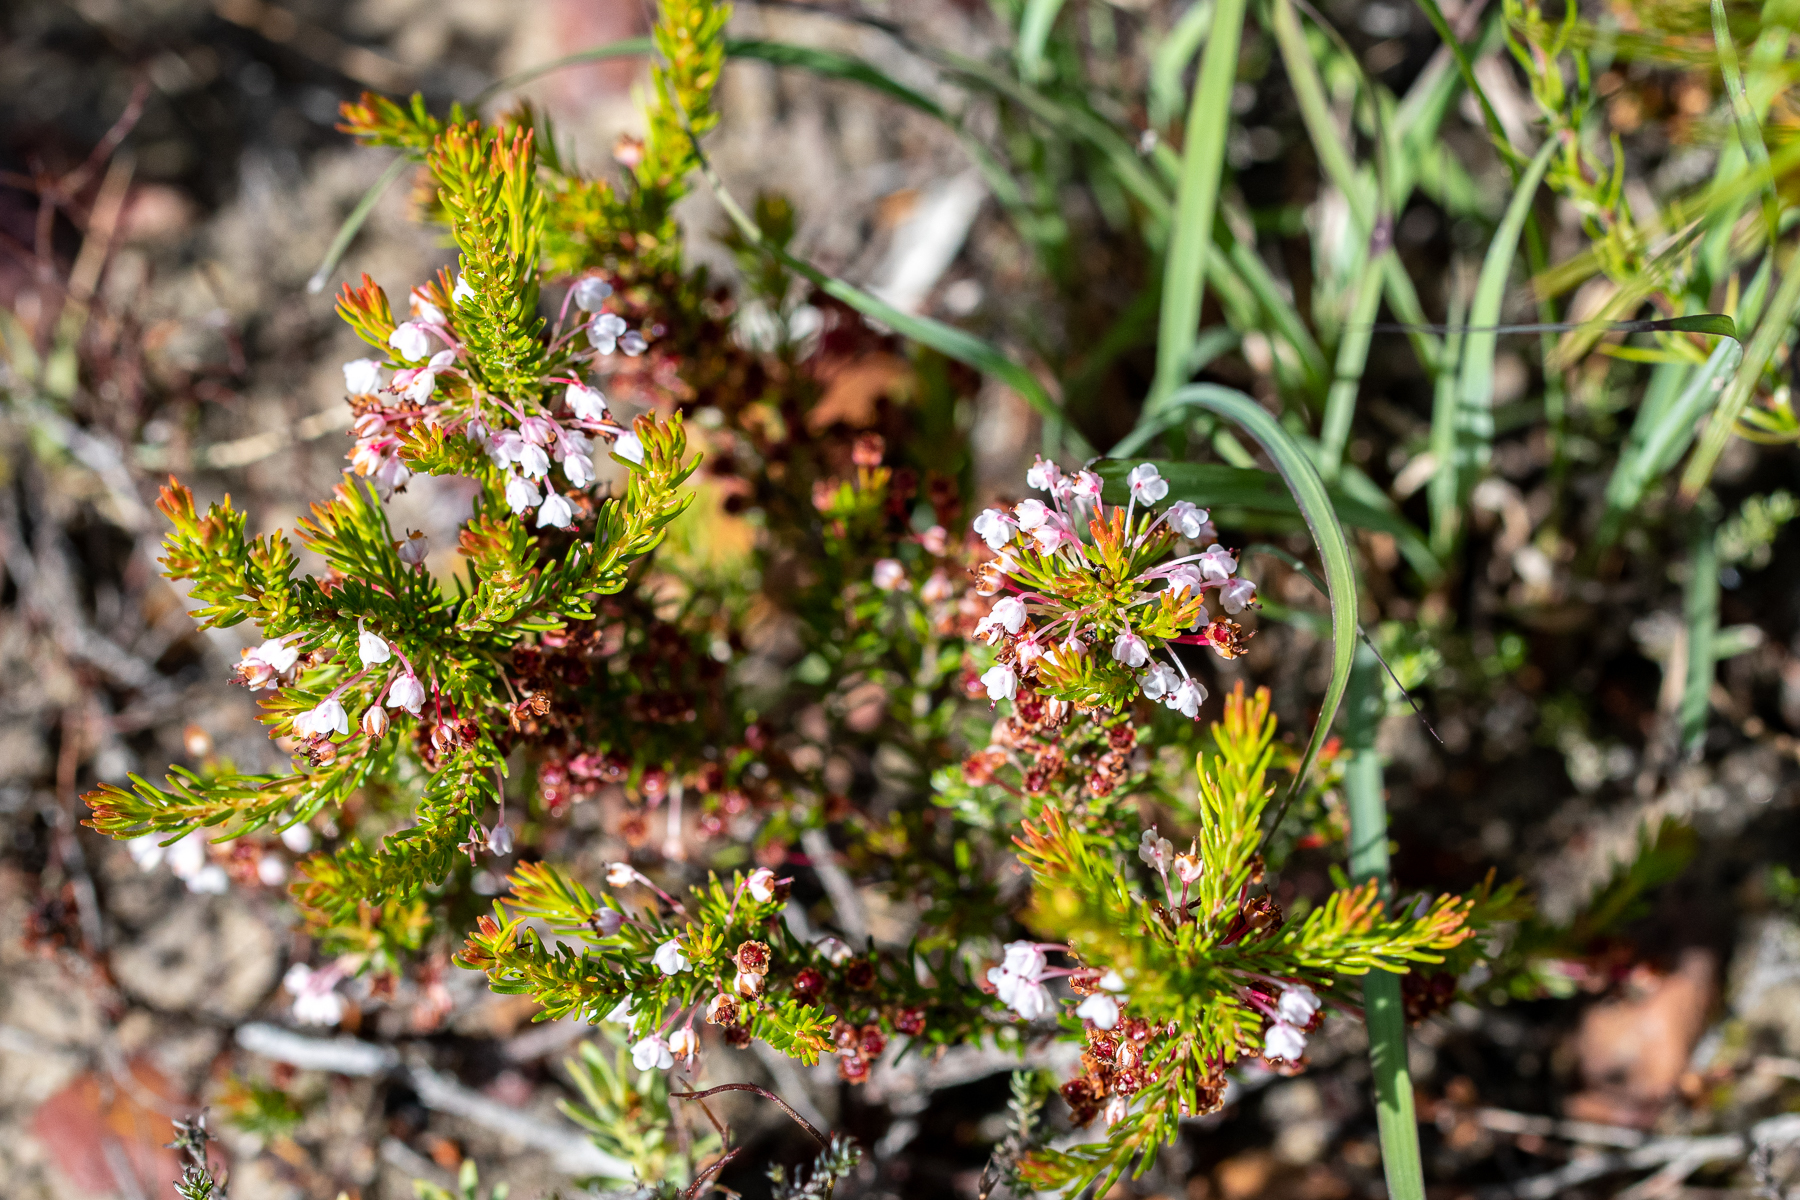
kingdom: Plantae
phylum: Tracheophyta
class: Magnoliopsida
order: Ericales
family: Ericaceae
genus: Erica
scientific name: Erica rubiginosa
